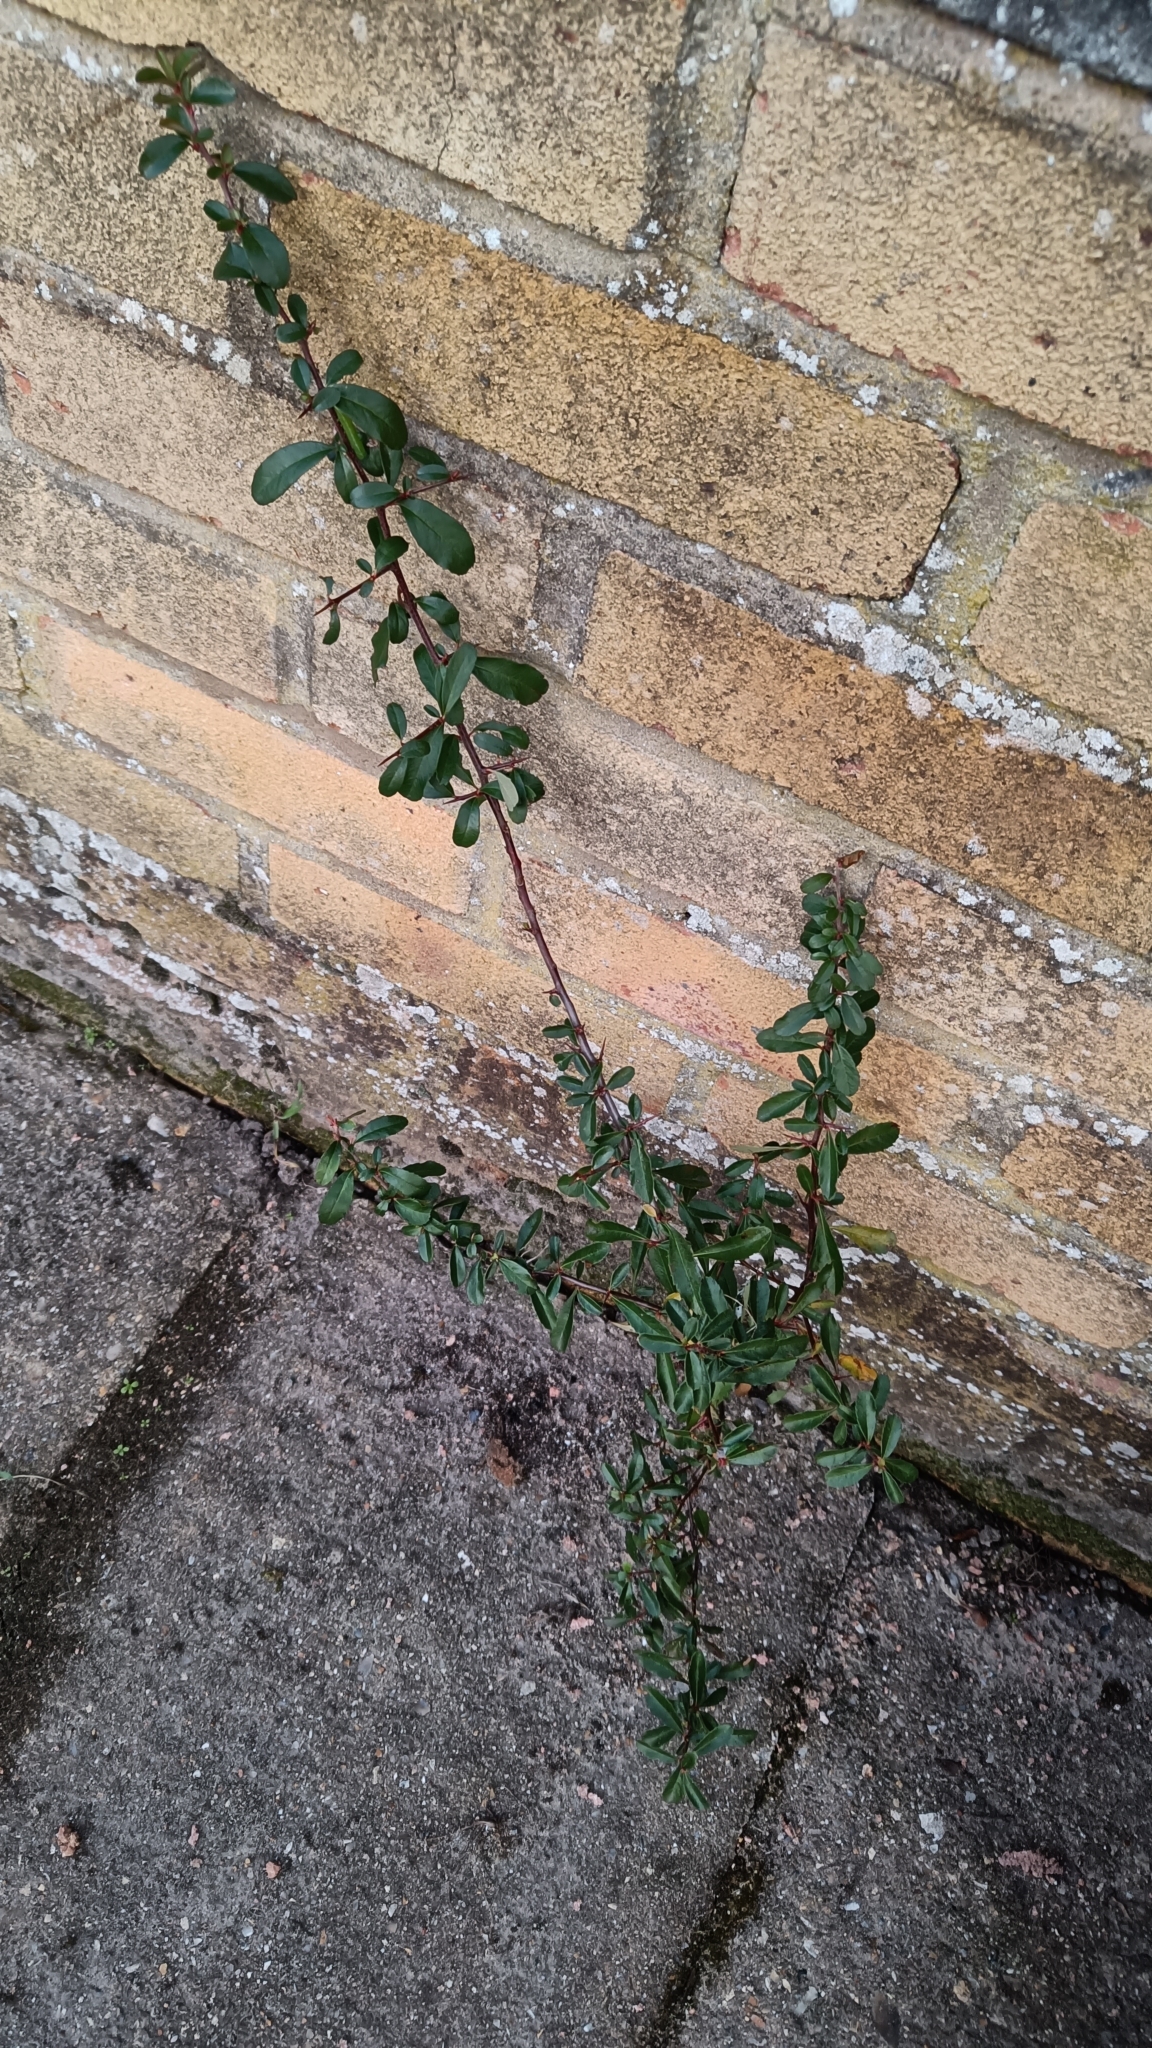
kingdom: Plantae
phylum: Tracheophyta
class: Magnoliopsida
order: Rosales
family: Rosaceae
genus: Pyracantha
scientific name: Pyracantha coccinea
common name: Firethorn
